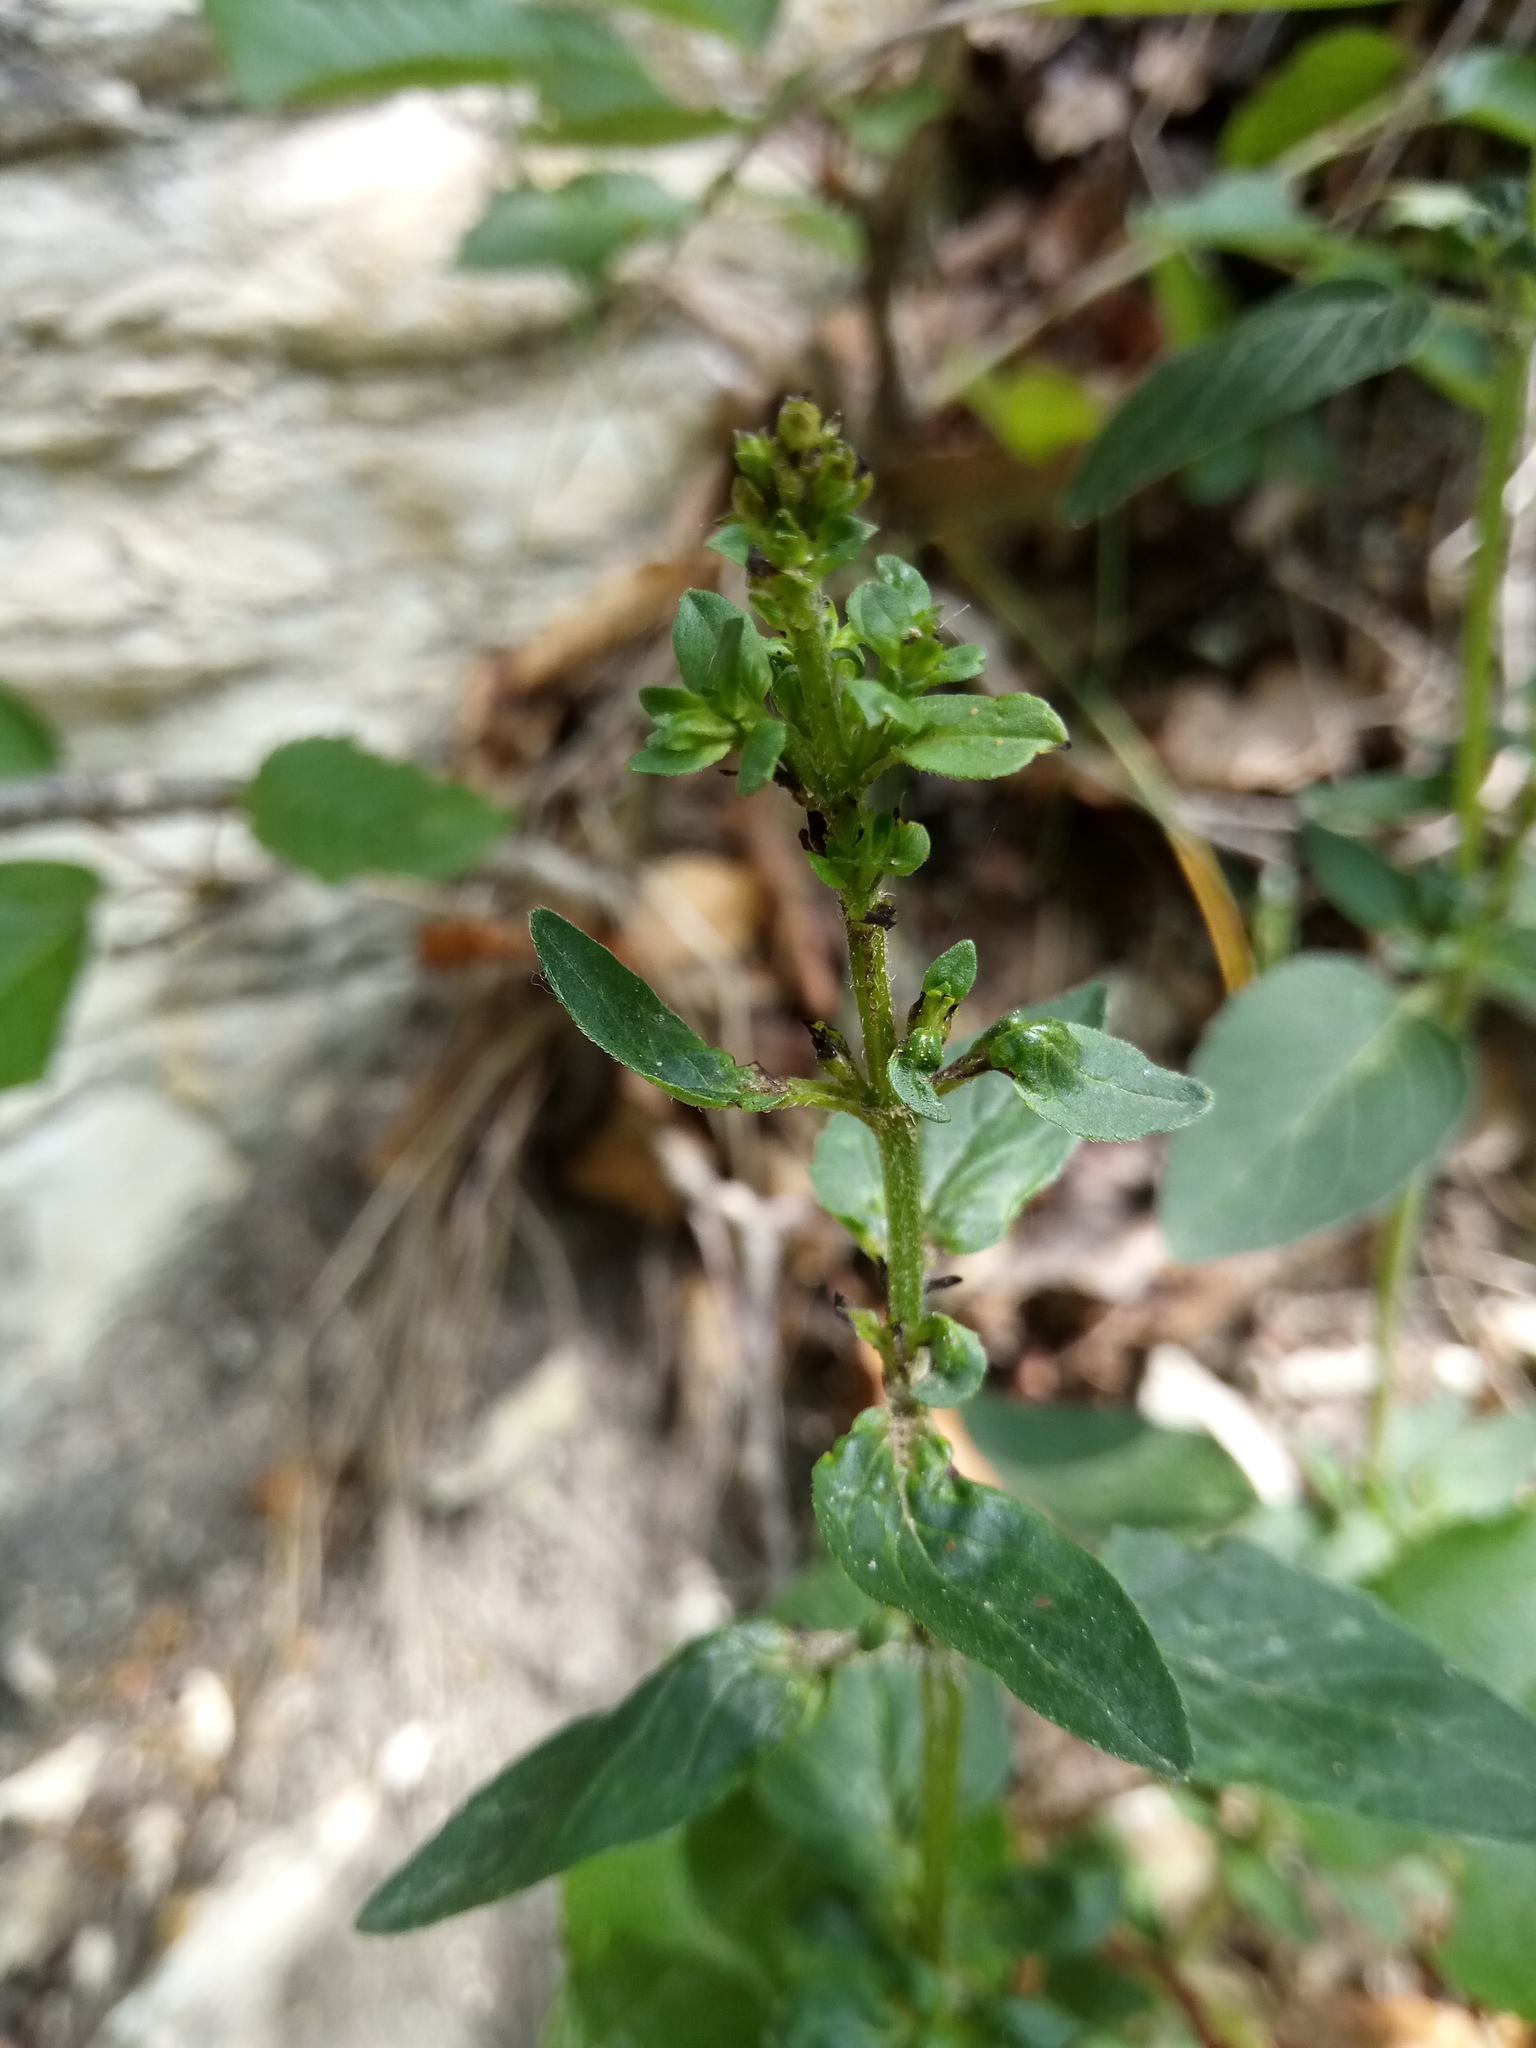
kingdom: Plantae
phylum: Tracheophyta
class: Magnoliopsida
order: Lamiales
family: Lamiaceae
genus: Origanum
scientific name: Origanum vulgare
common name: Wild marjoram
